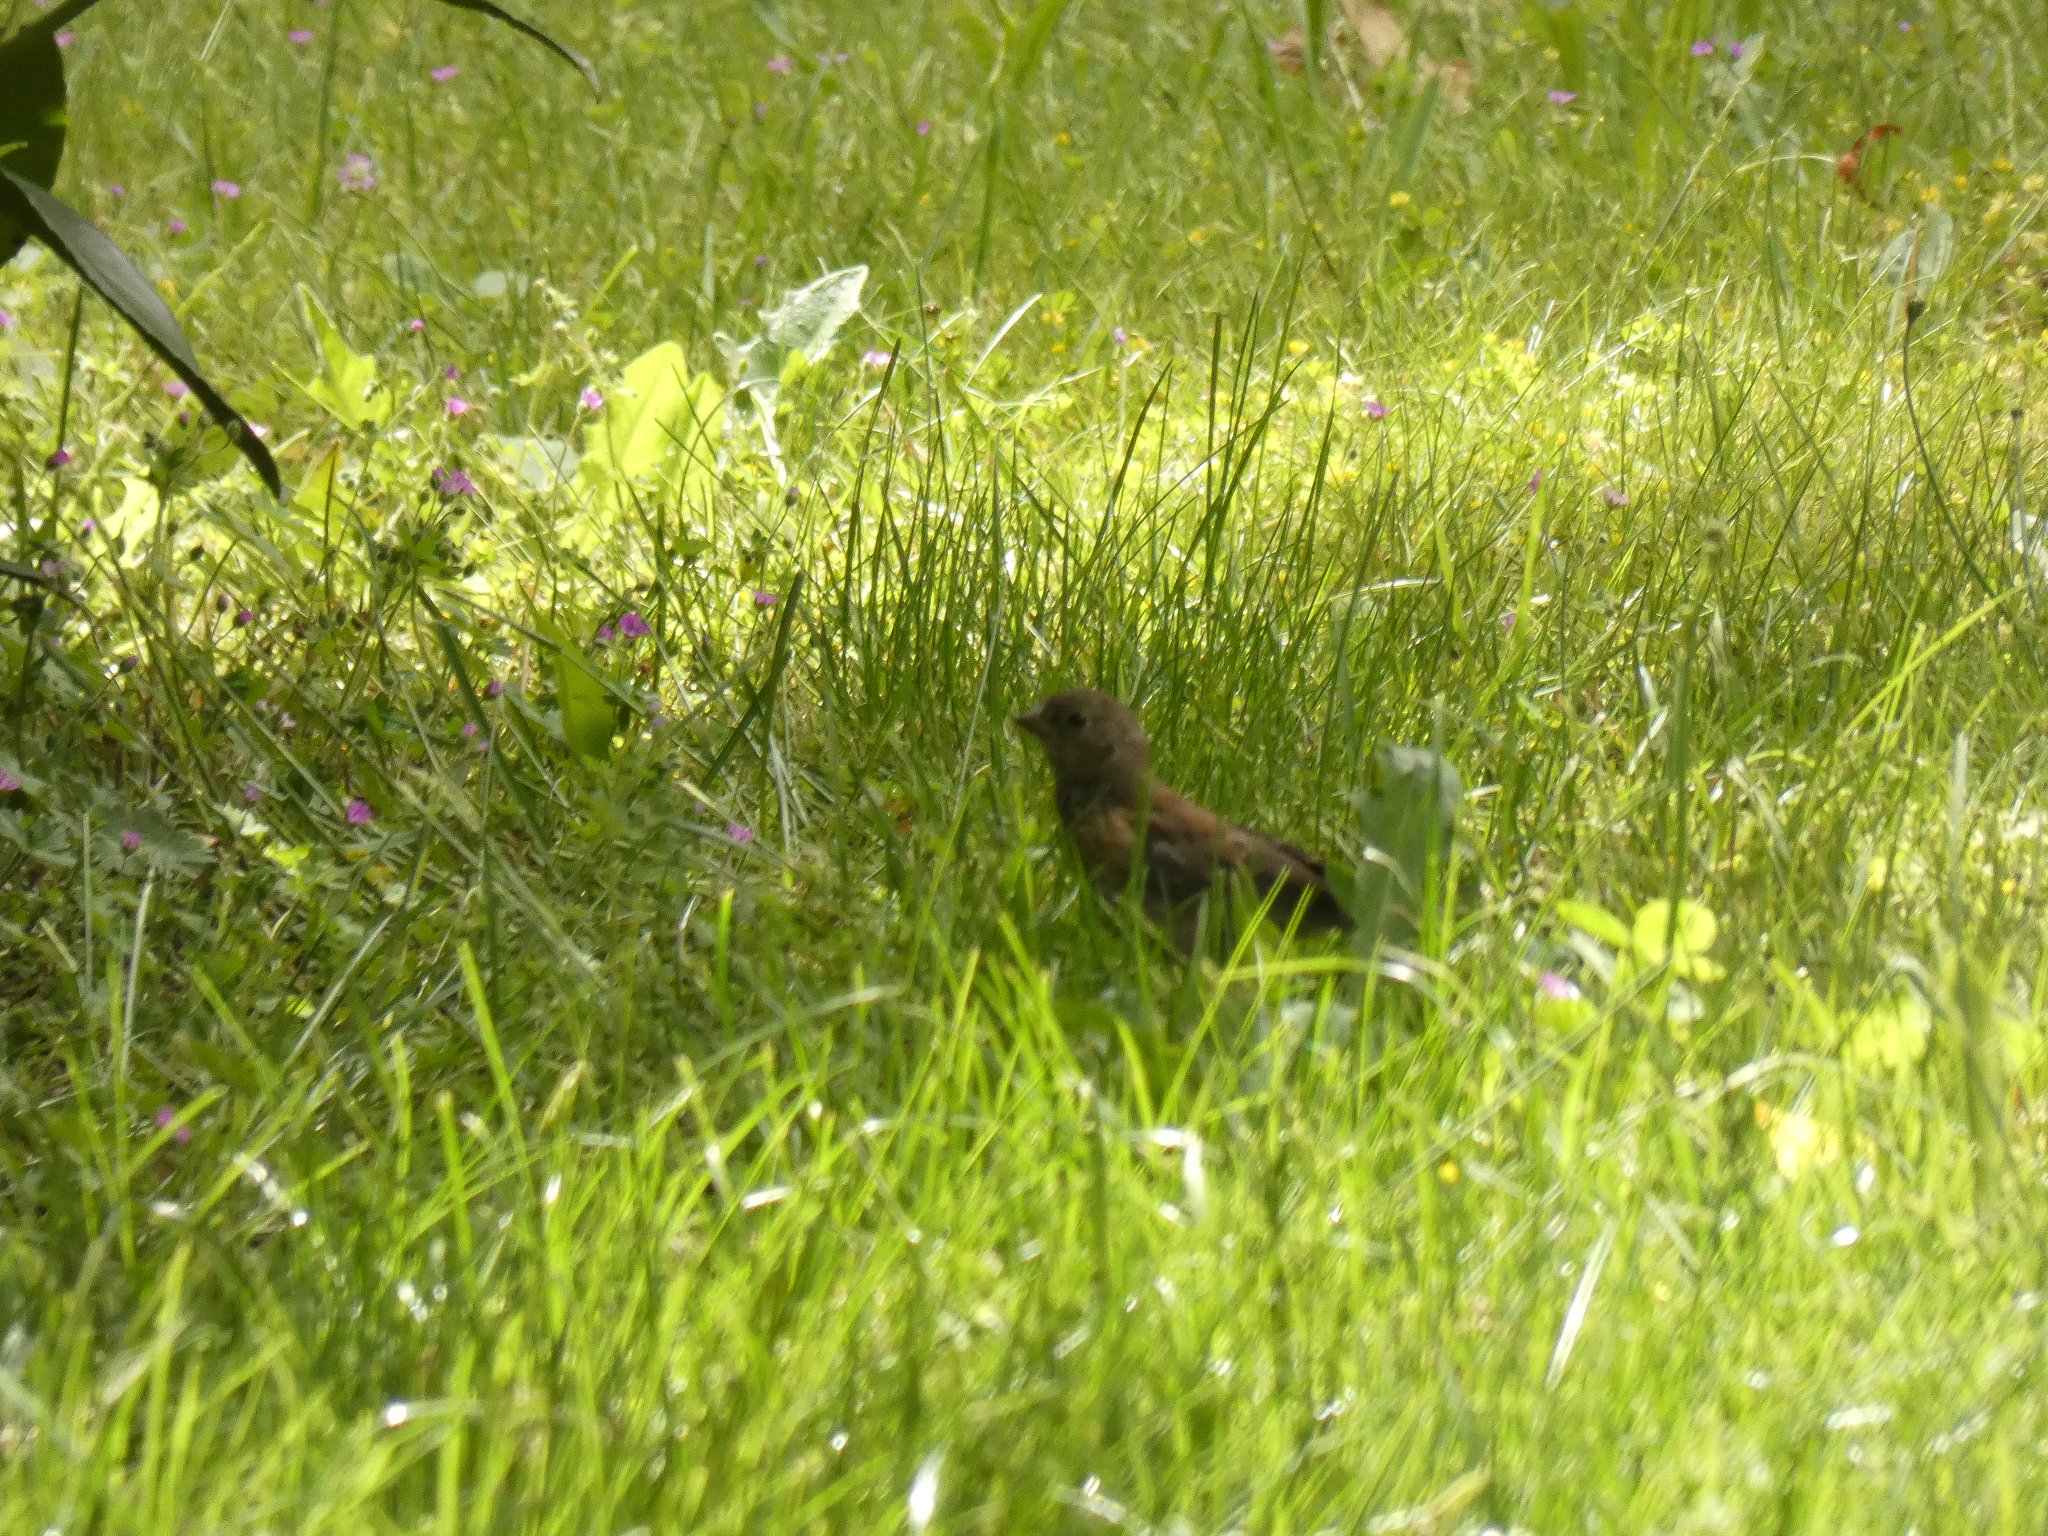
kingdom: Animalia
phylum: Chordata
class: Aves
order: Passeriformes
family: Passerellidae
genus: Junco
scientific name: Junco hyemalis
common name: Dark-eyed junco
